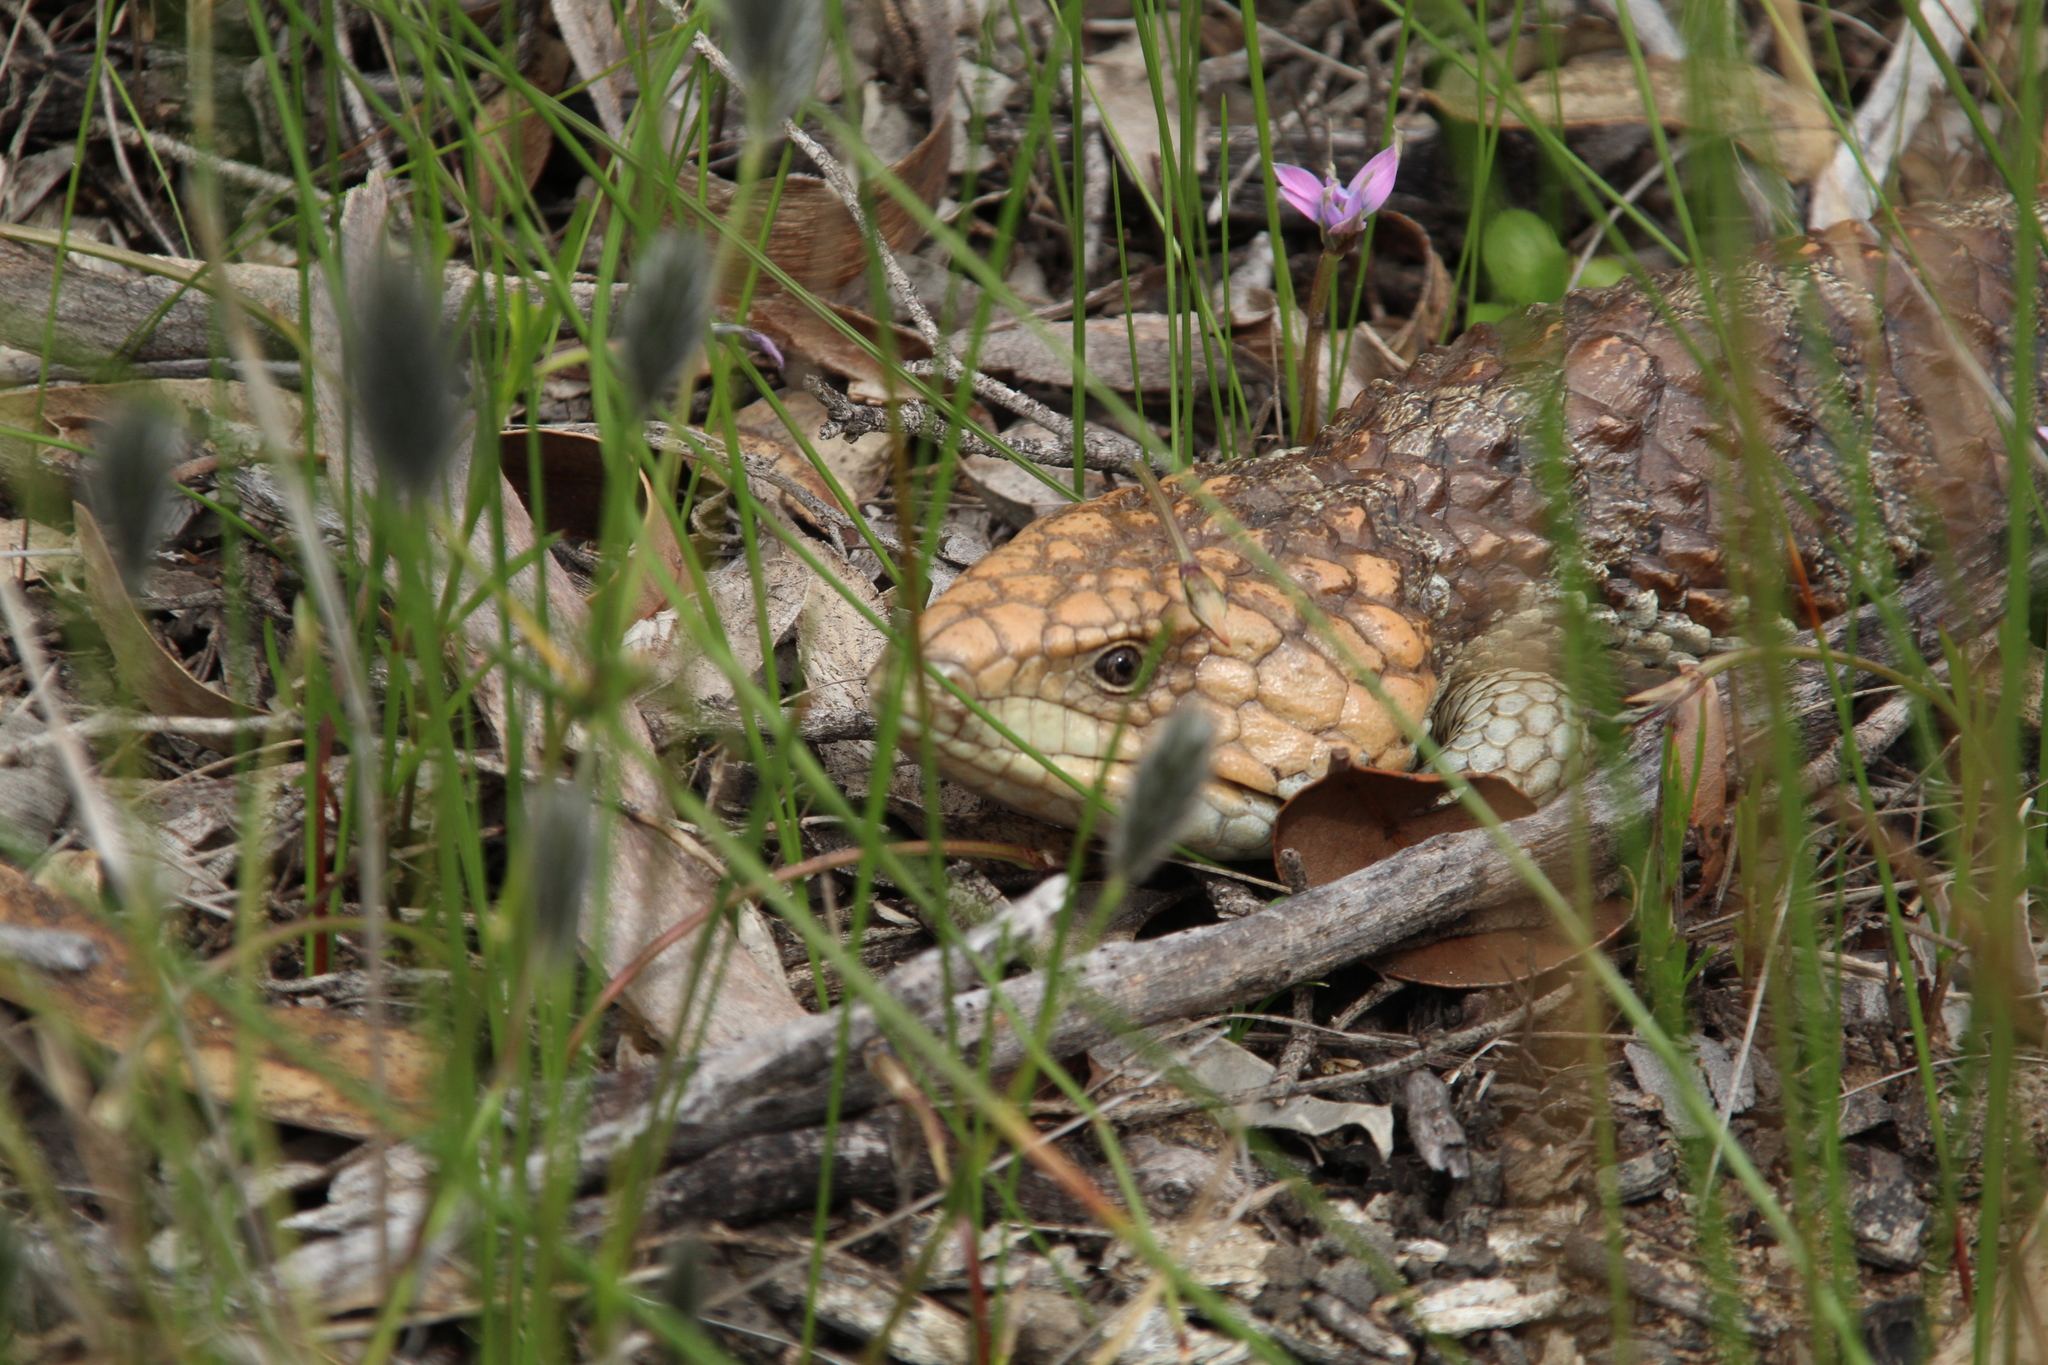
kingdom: Animalia
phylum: Chordata
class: Squamata
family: Scincidae
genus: Tiliqua
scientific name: Tiliqua rugosa
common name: Pinecone lizard
